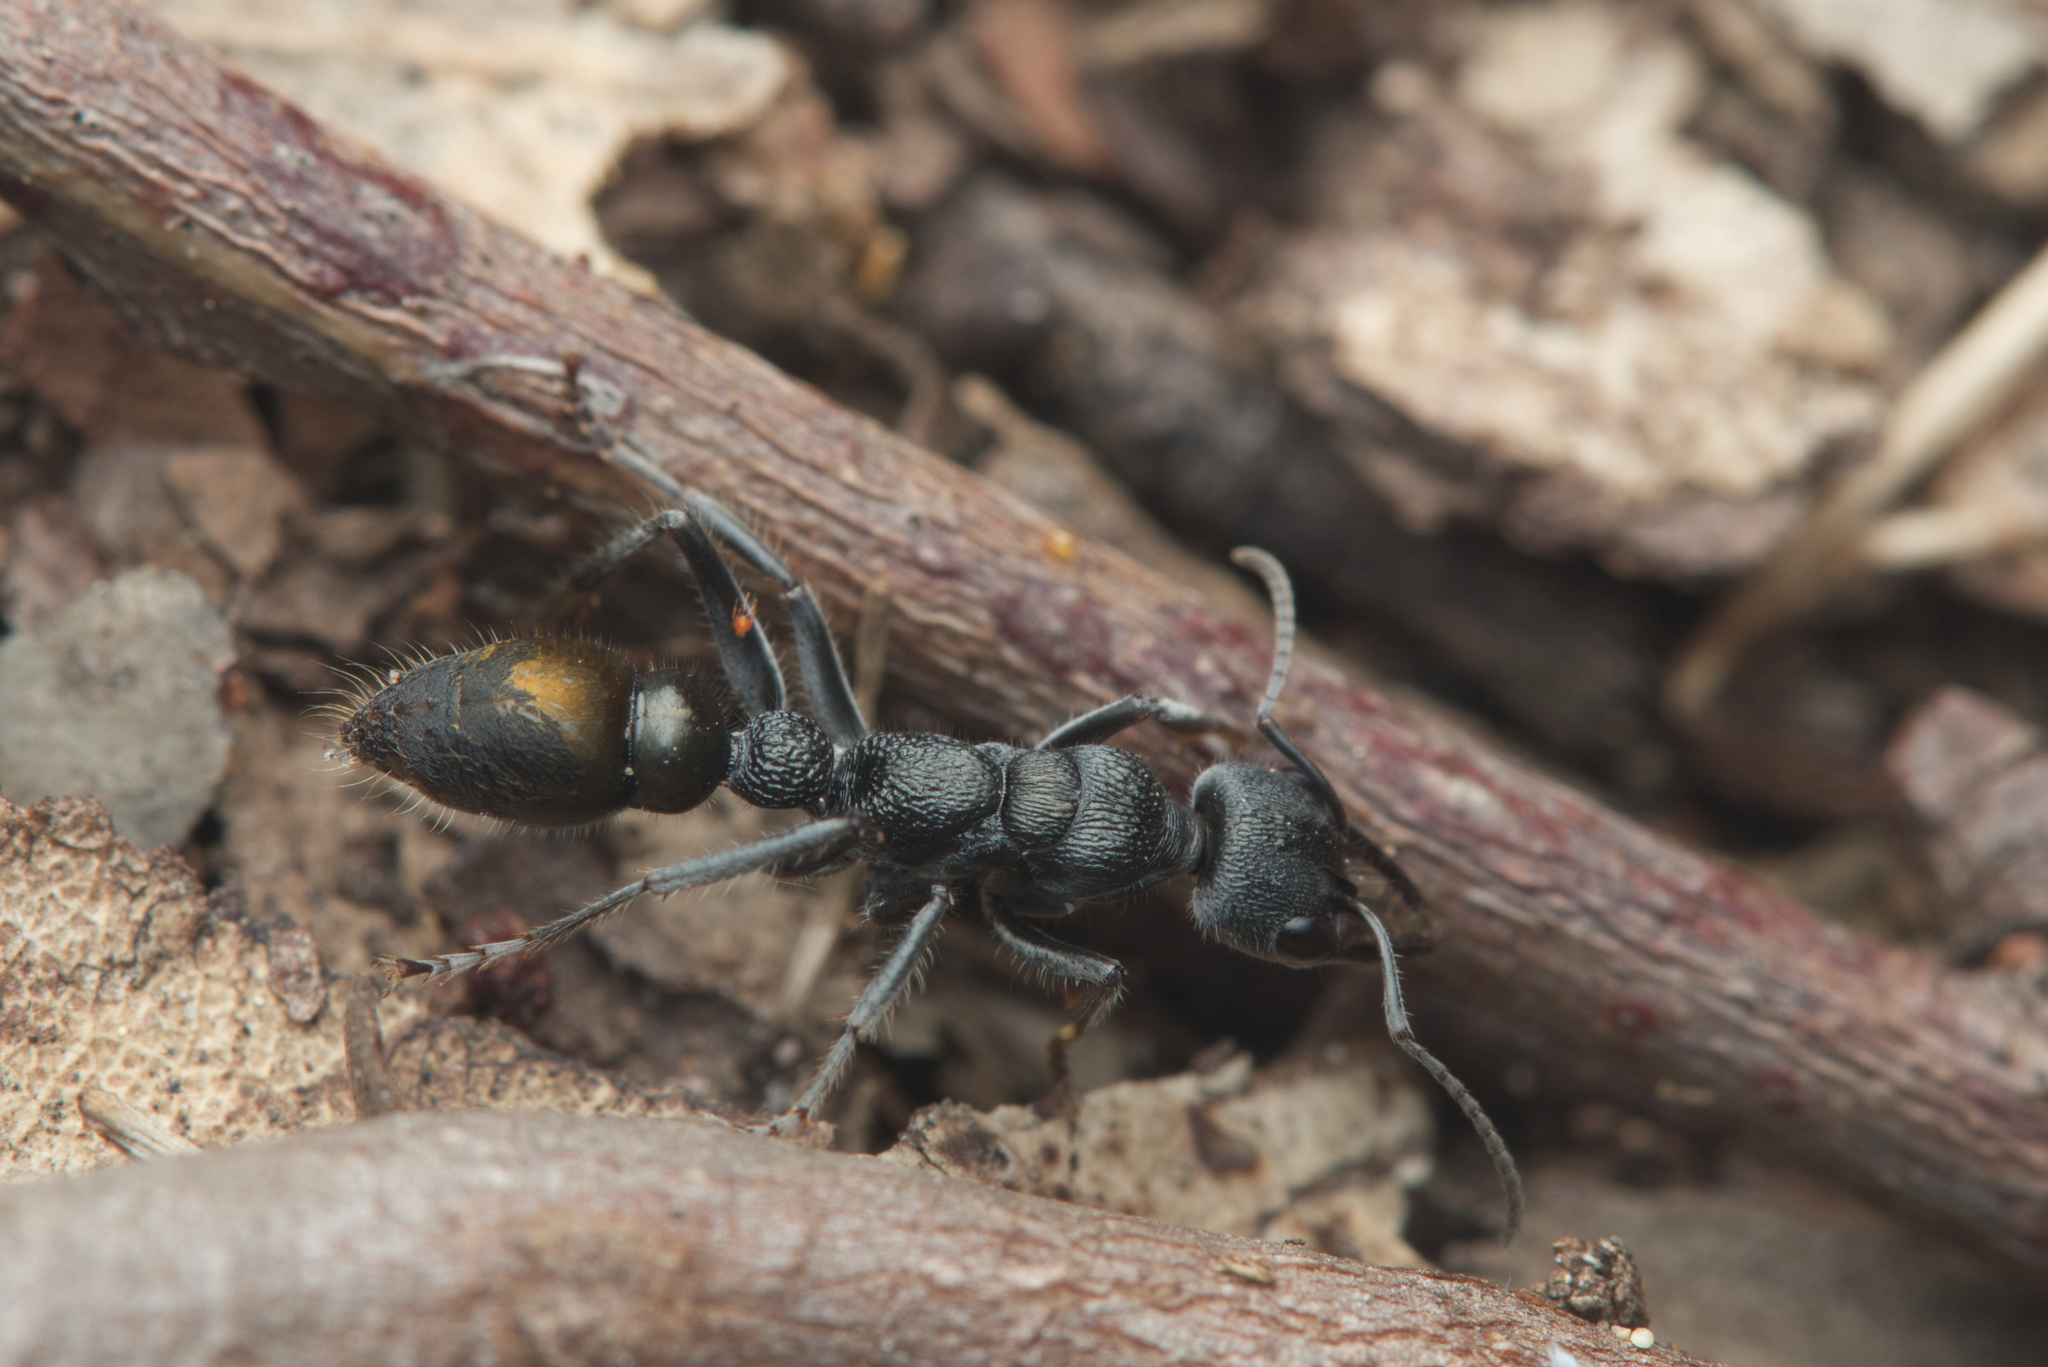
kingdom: Animalia
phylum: Arthropoda
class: Insecta
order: Hymenoptera
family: Formicidae
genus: Myrmecia
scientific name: Myrmecia gilberti
